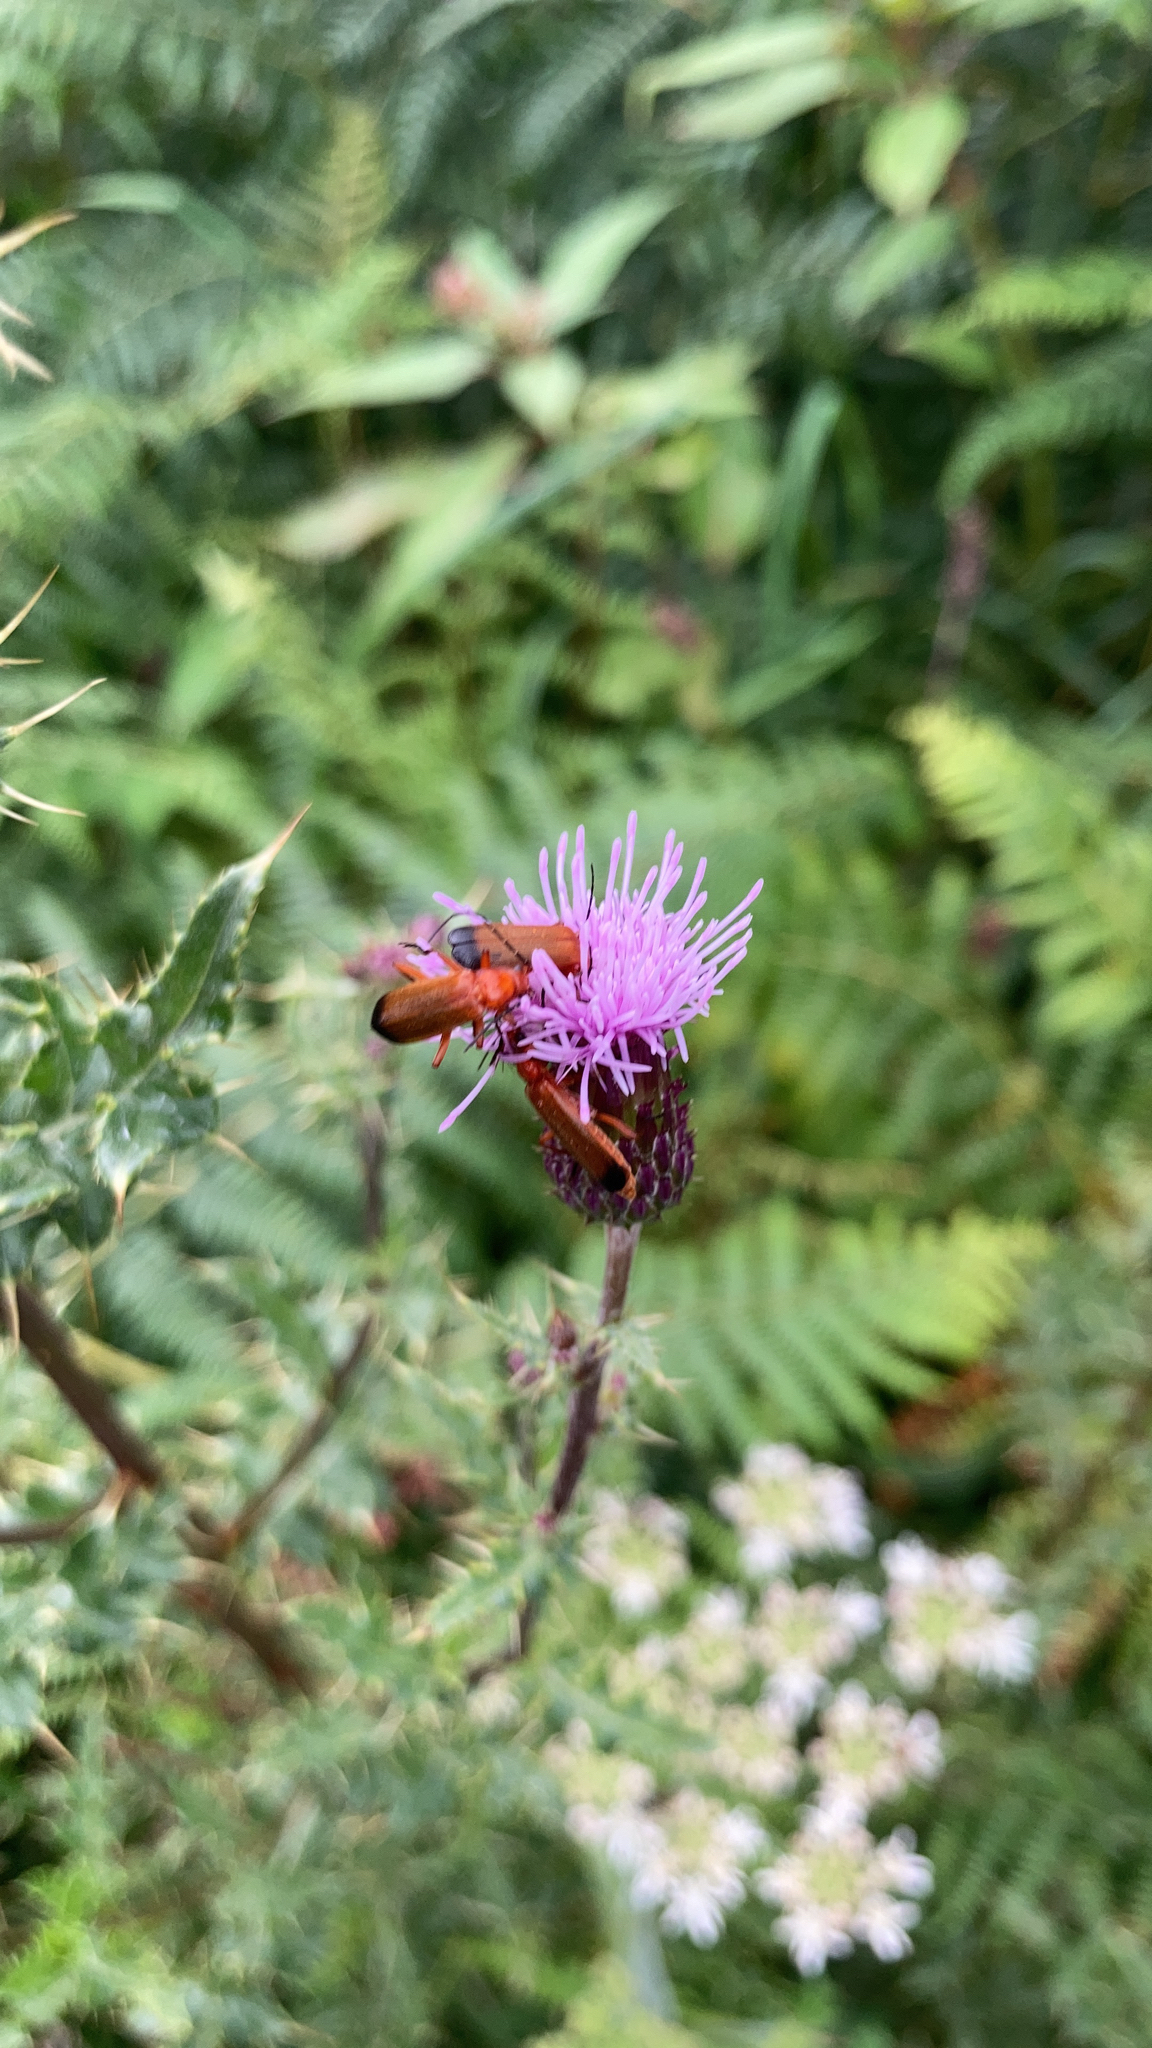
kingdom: Animalia
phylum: Arthropoda
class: Insecta
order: Coleoptera
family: Cantharidae
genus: Rhagonycha
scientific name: Rhagonycha fulva
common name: Common red soldier beetle
